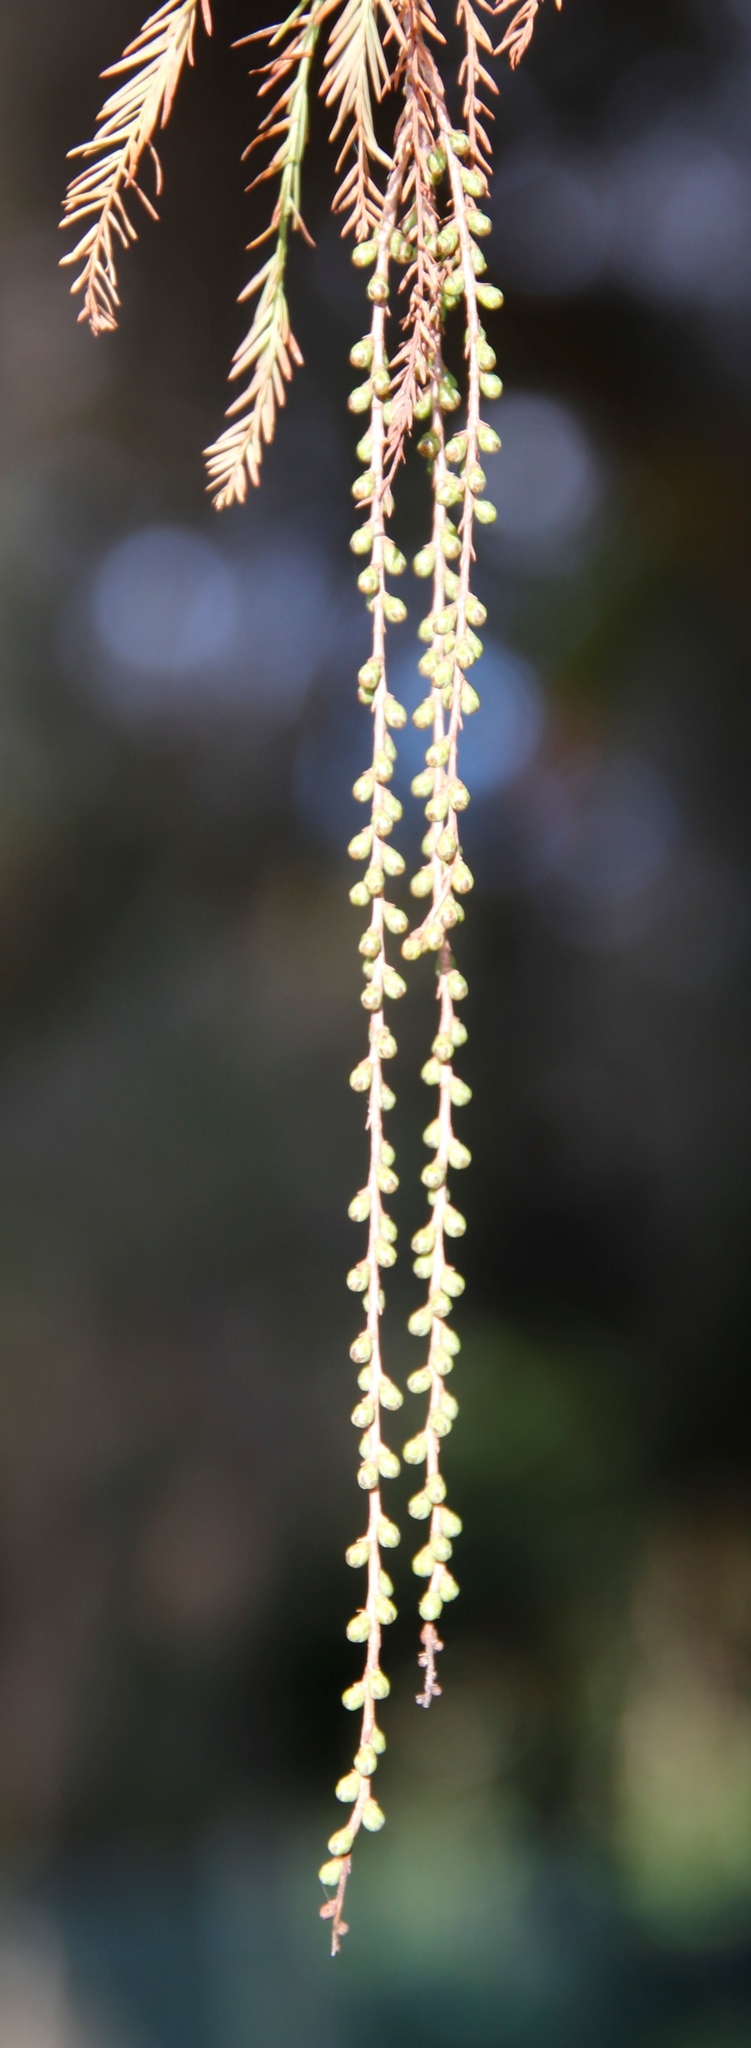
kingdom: Plantae
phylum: Tracheophyta
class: Pinopsida
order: Pinales
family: Cupressaceae
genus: Taxodium
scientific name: Taxodium distichum
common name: Bald cypress
